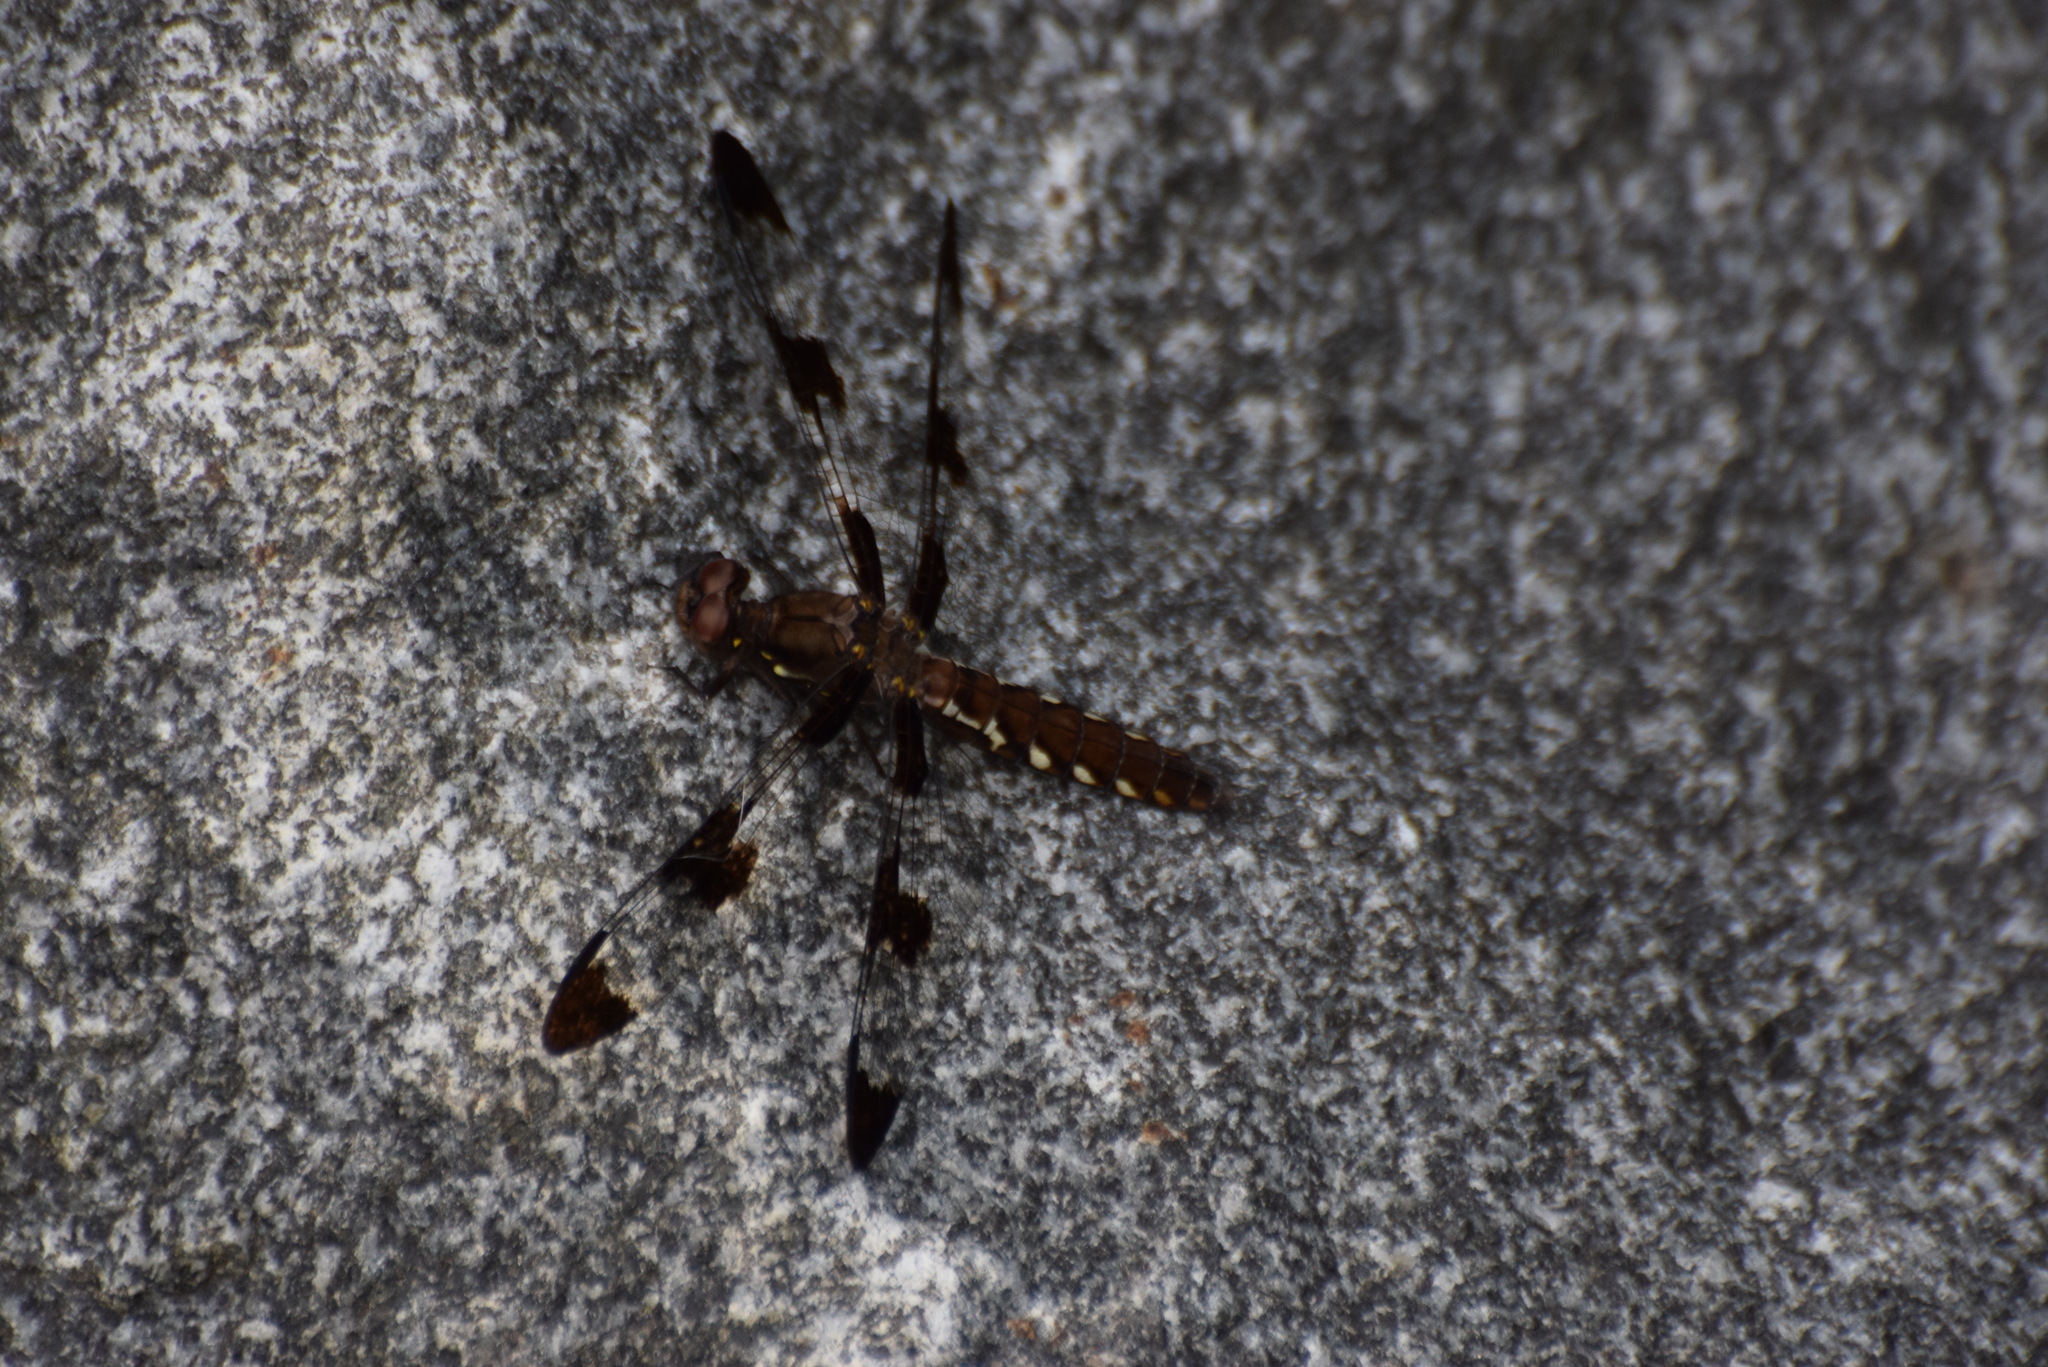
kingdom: Animalia
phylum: Arthropoda
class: Insecta
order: Odonata
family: Libellulidae
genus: Plathemis
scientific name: Plathemis lydia
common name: Common whitetail
